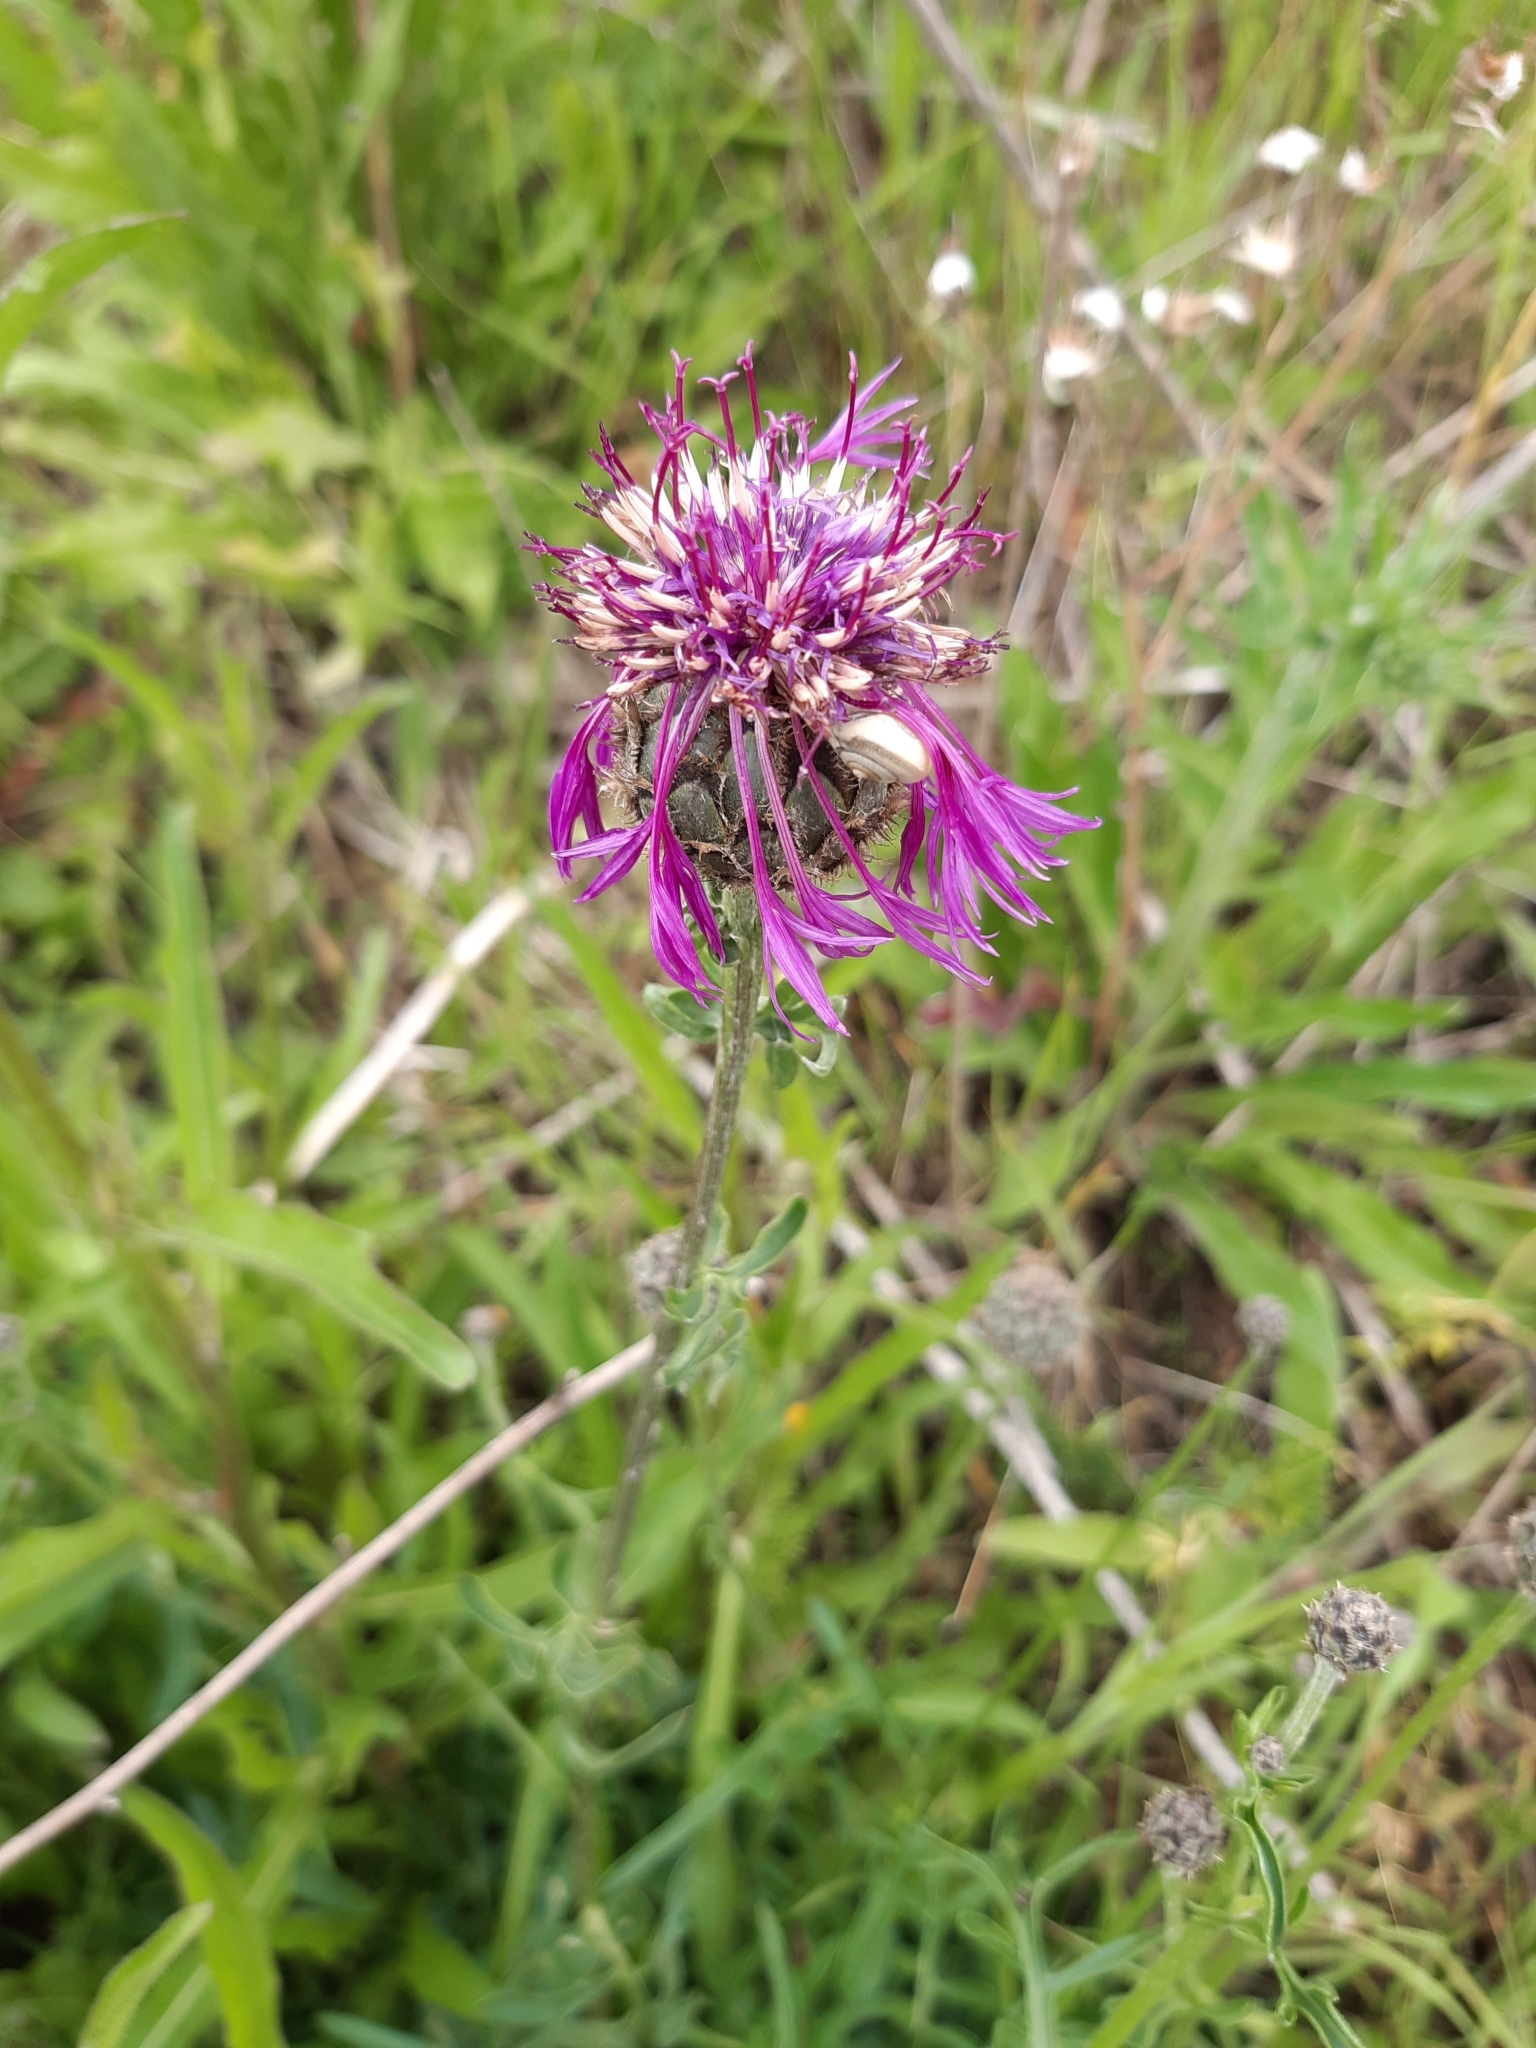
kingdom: Plantae
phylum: Tracheophyta
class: Magnoliopsida
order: Asterales
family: Asteraceae
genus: Centaurea
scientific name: Centaurea scabiosa
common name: Greater knapweed
